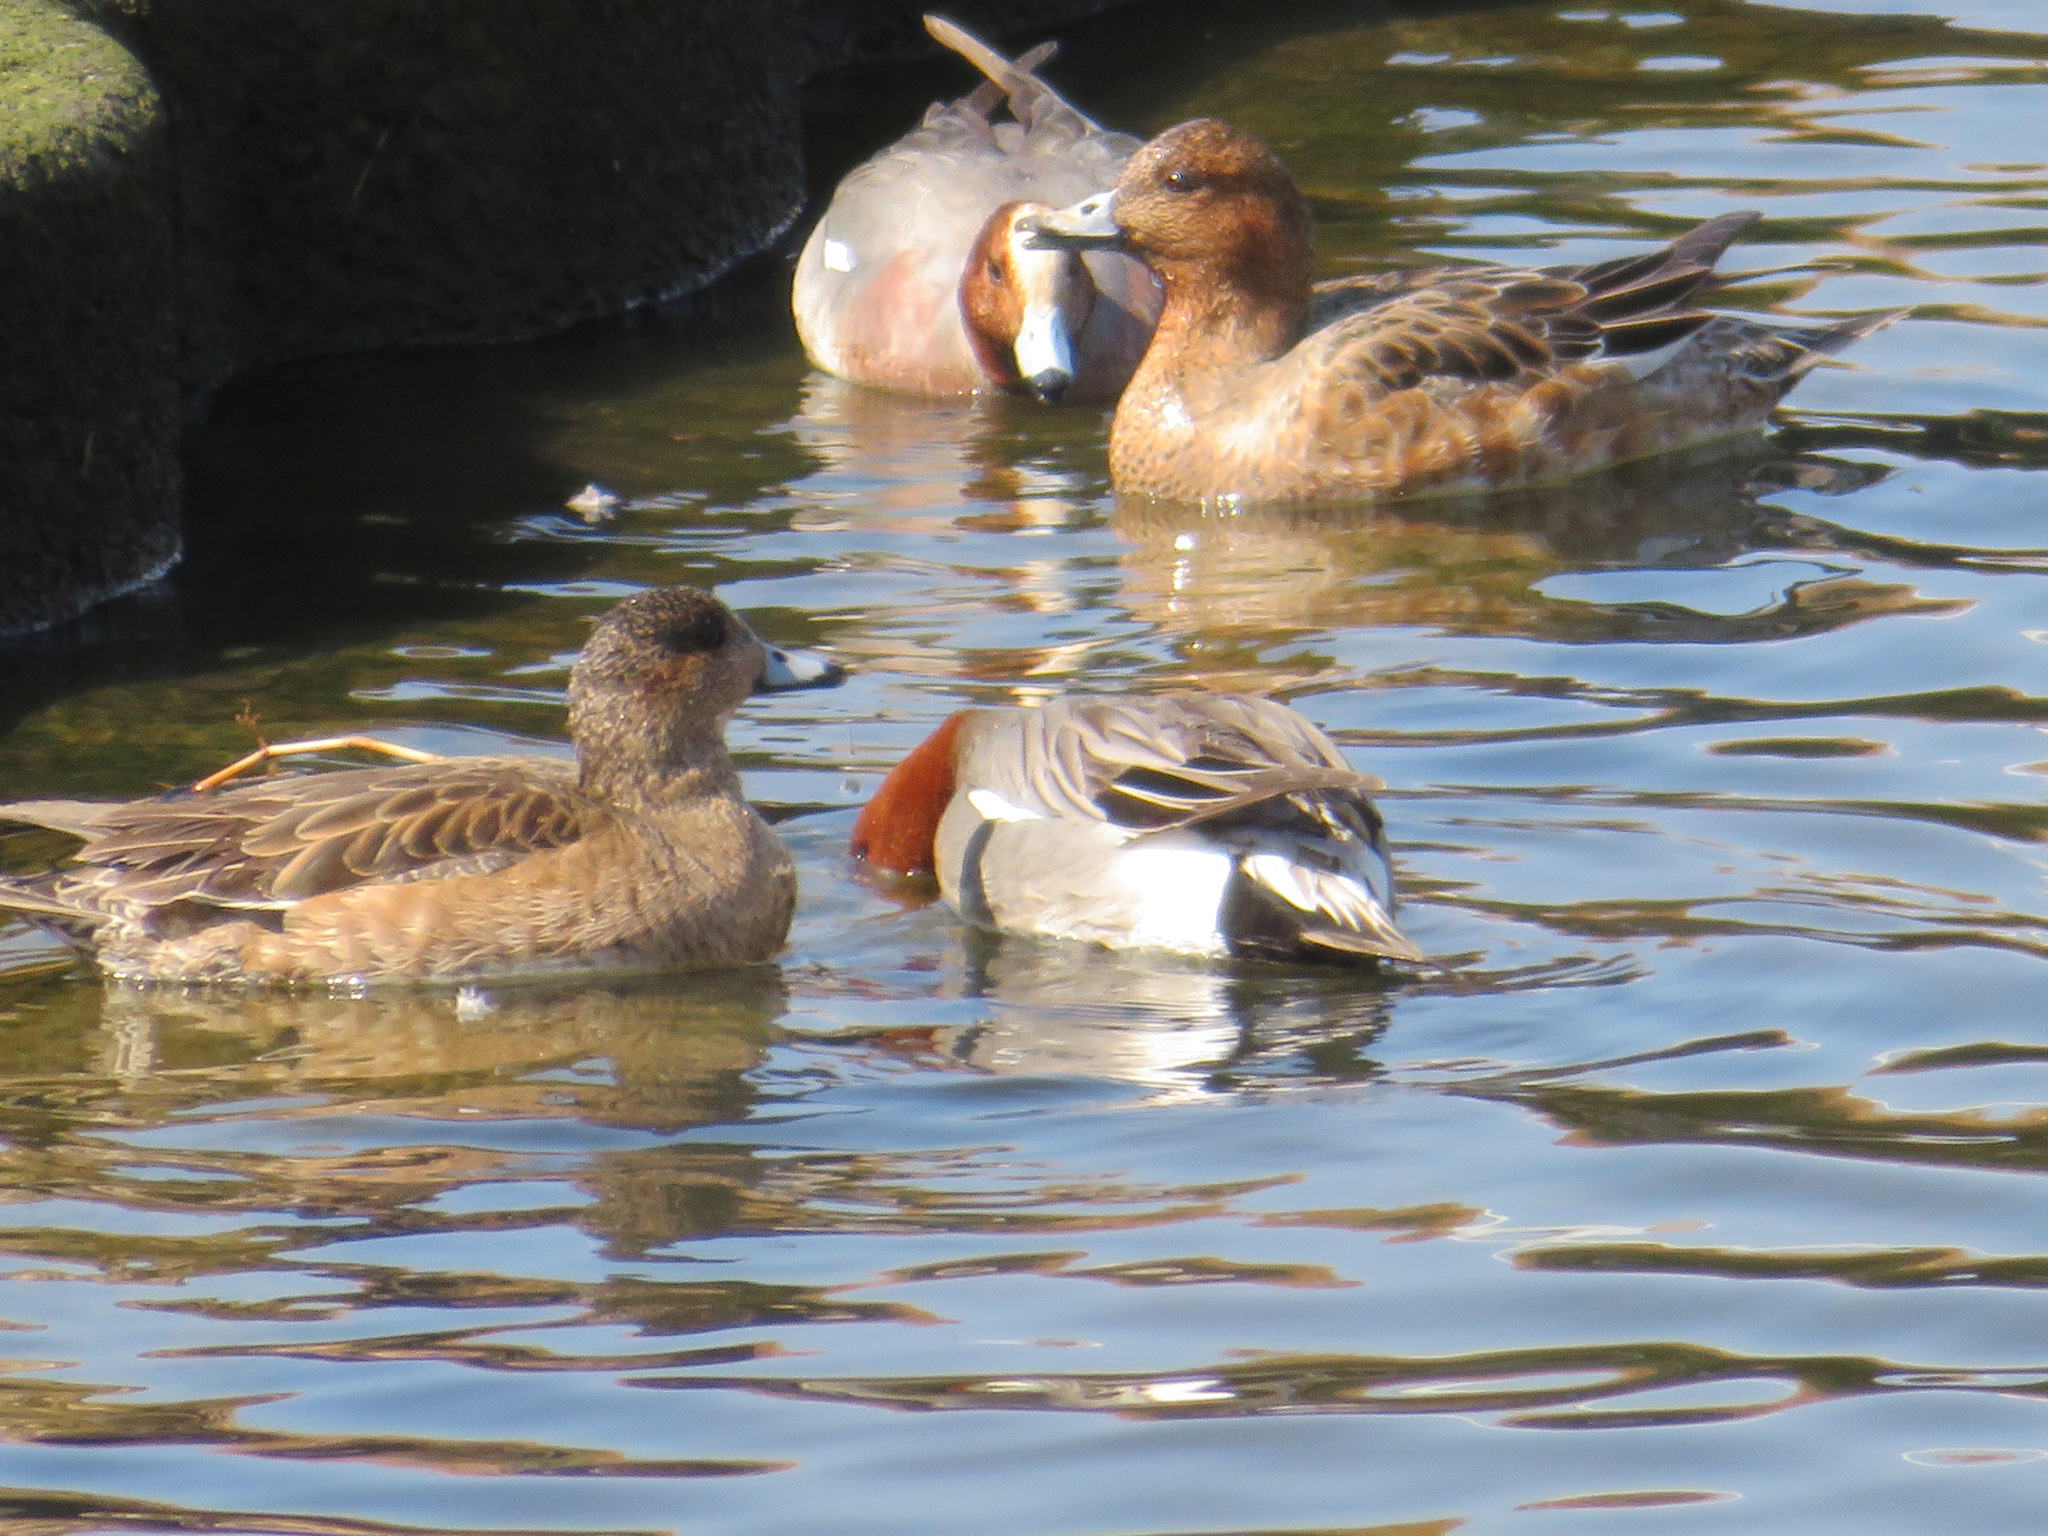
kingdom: Animalia
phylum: Chordata
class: Aves
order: Anseriformes
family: Anatidae
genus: Mareca
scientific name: Mareca penelope
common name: Eurasian wigeon
